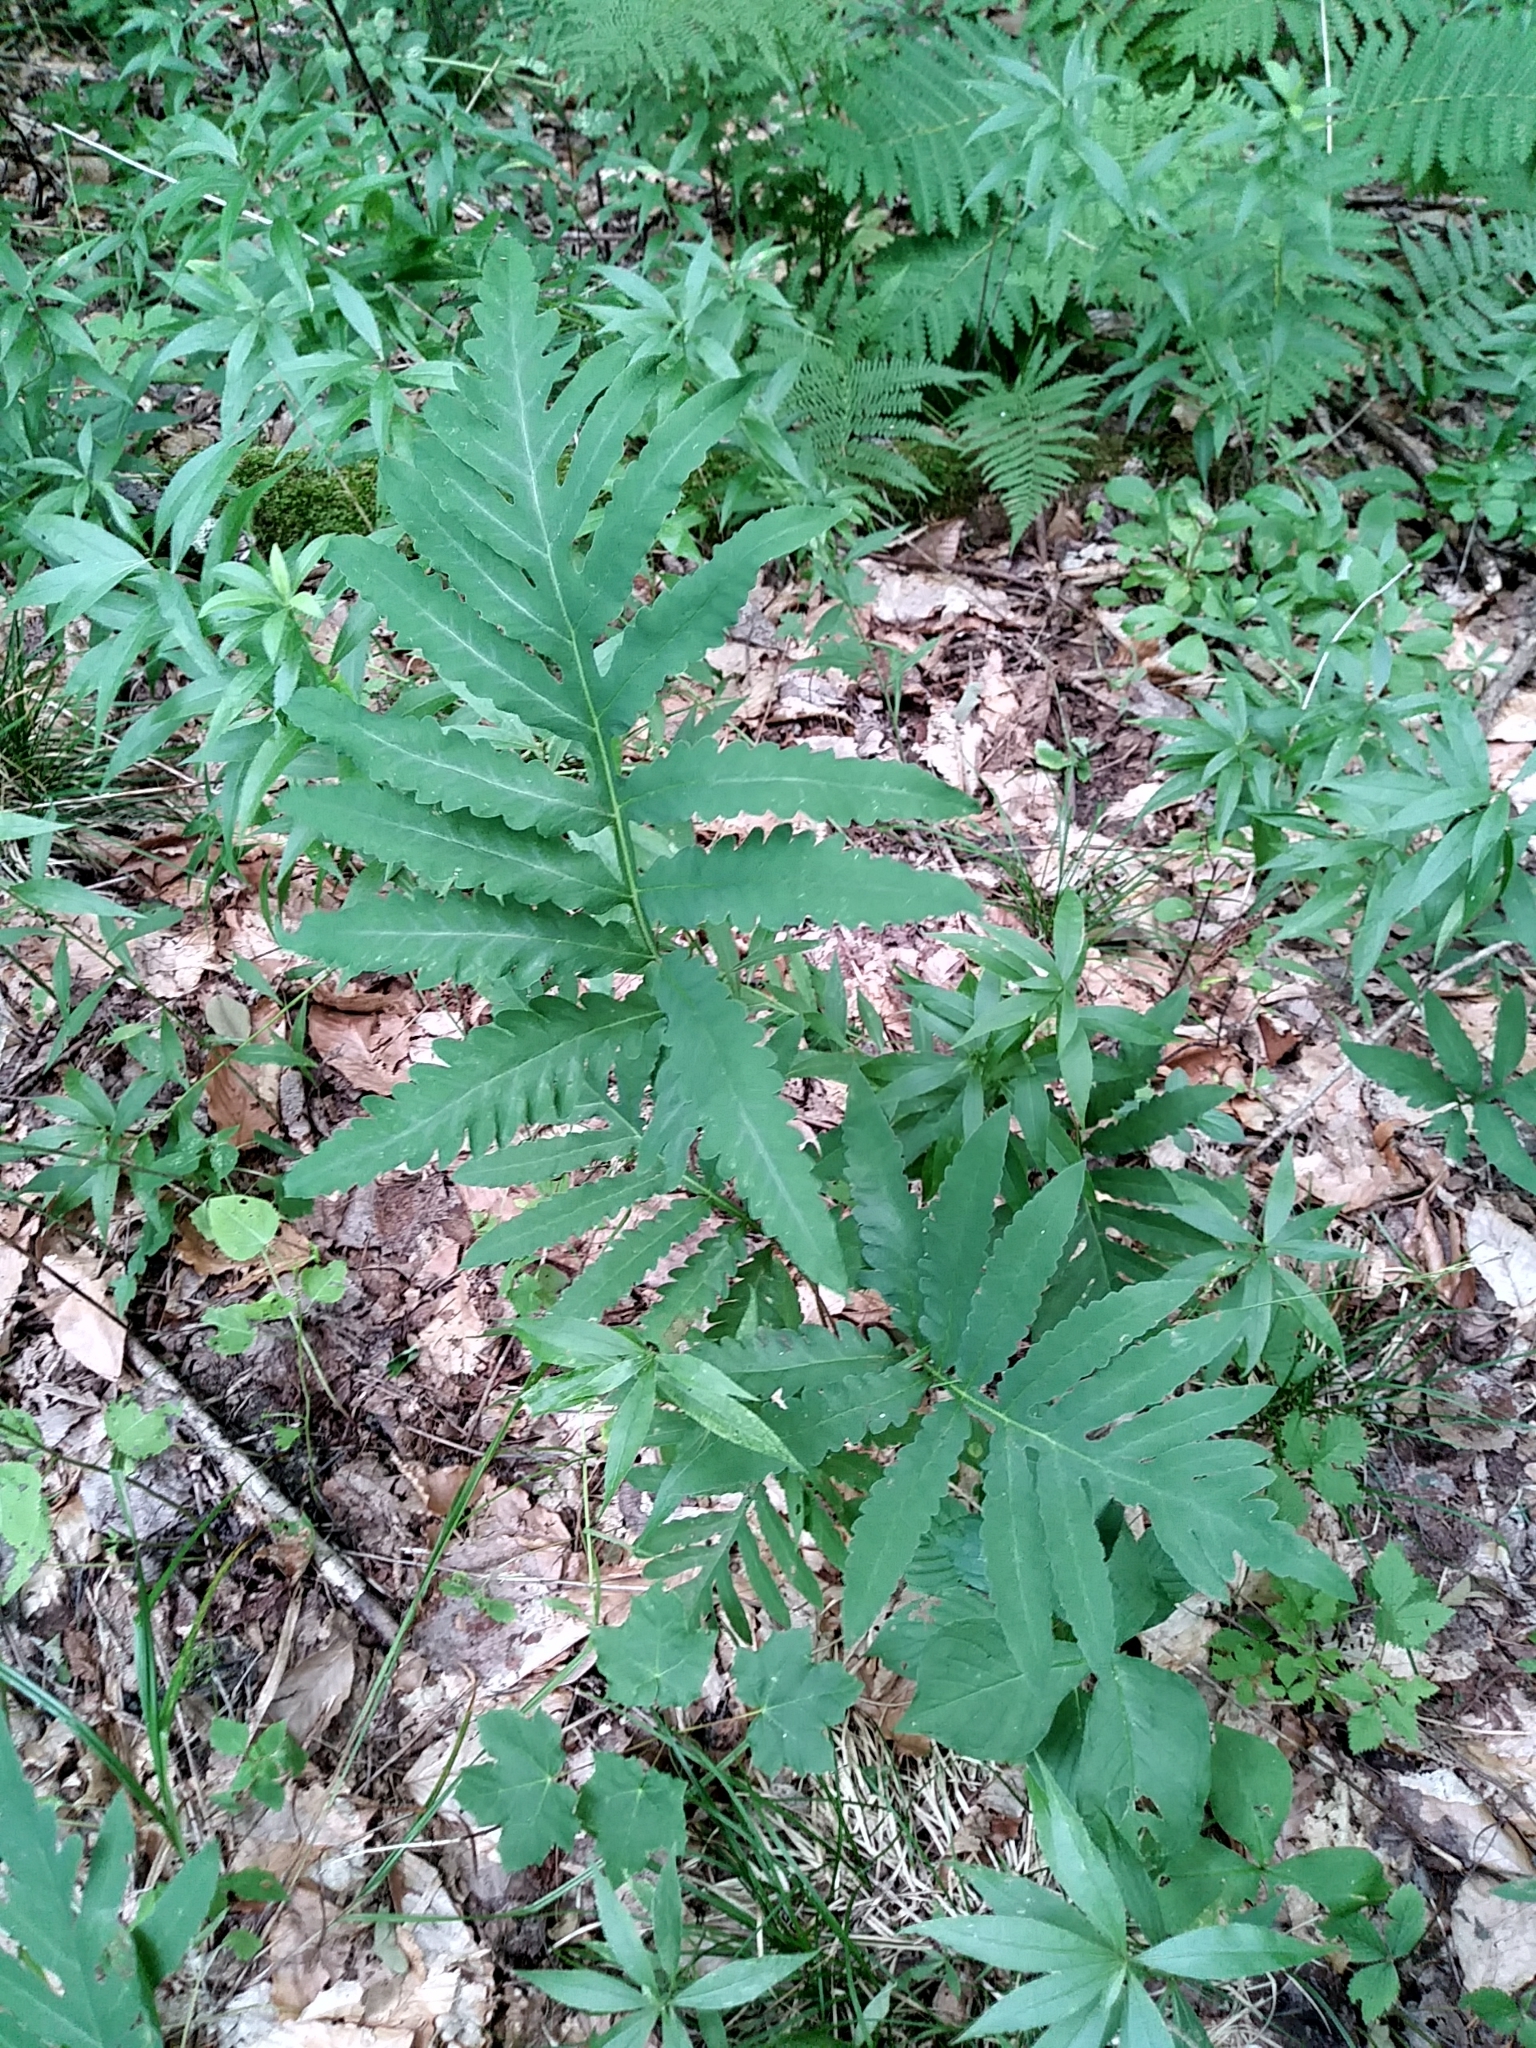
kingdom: Plantae
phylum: Tracheophyta
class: Polypodiopsida
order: Polypodiales
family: Onocleaceae
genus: Onoclea
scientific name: Onoclea sensibilis
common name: Sensitive fern
